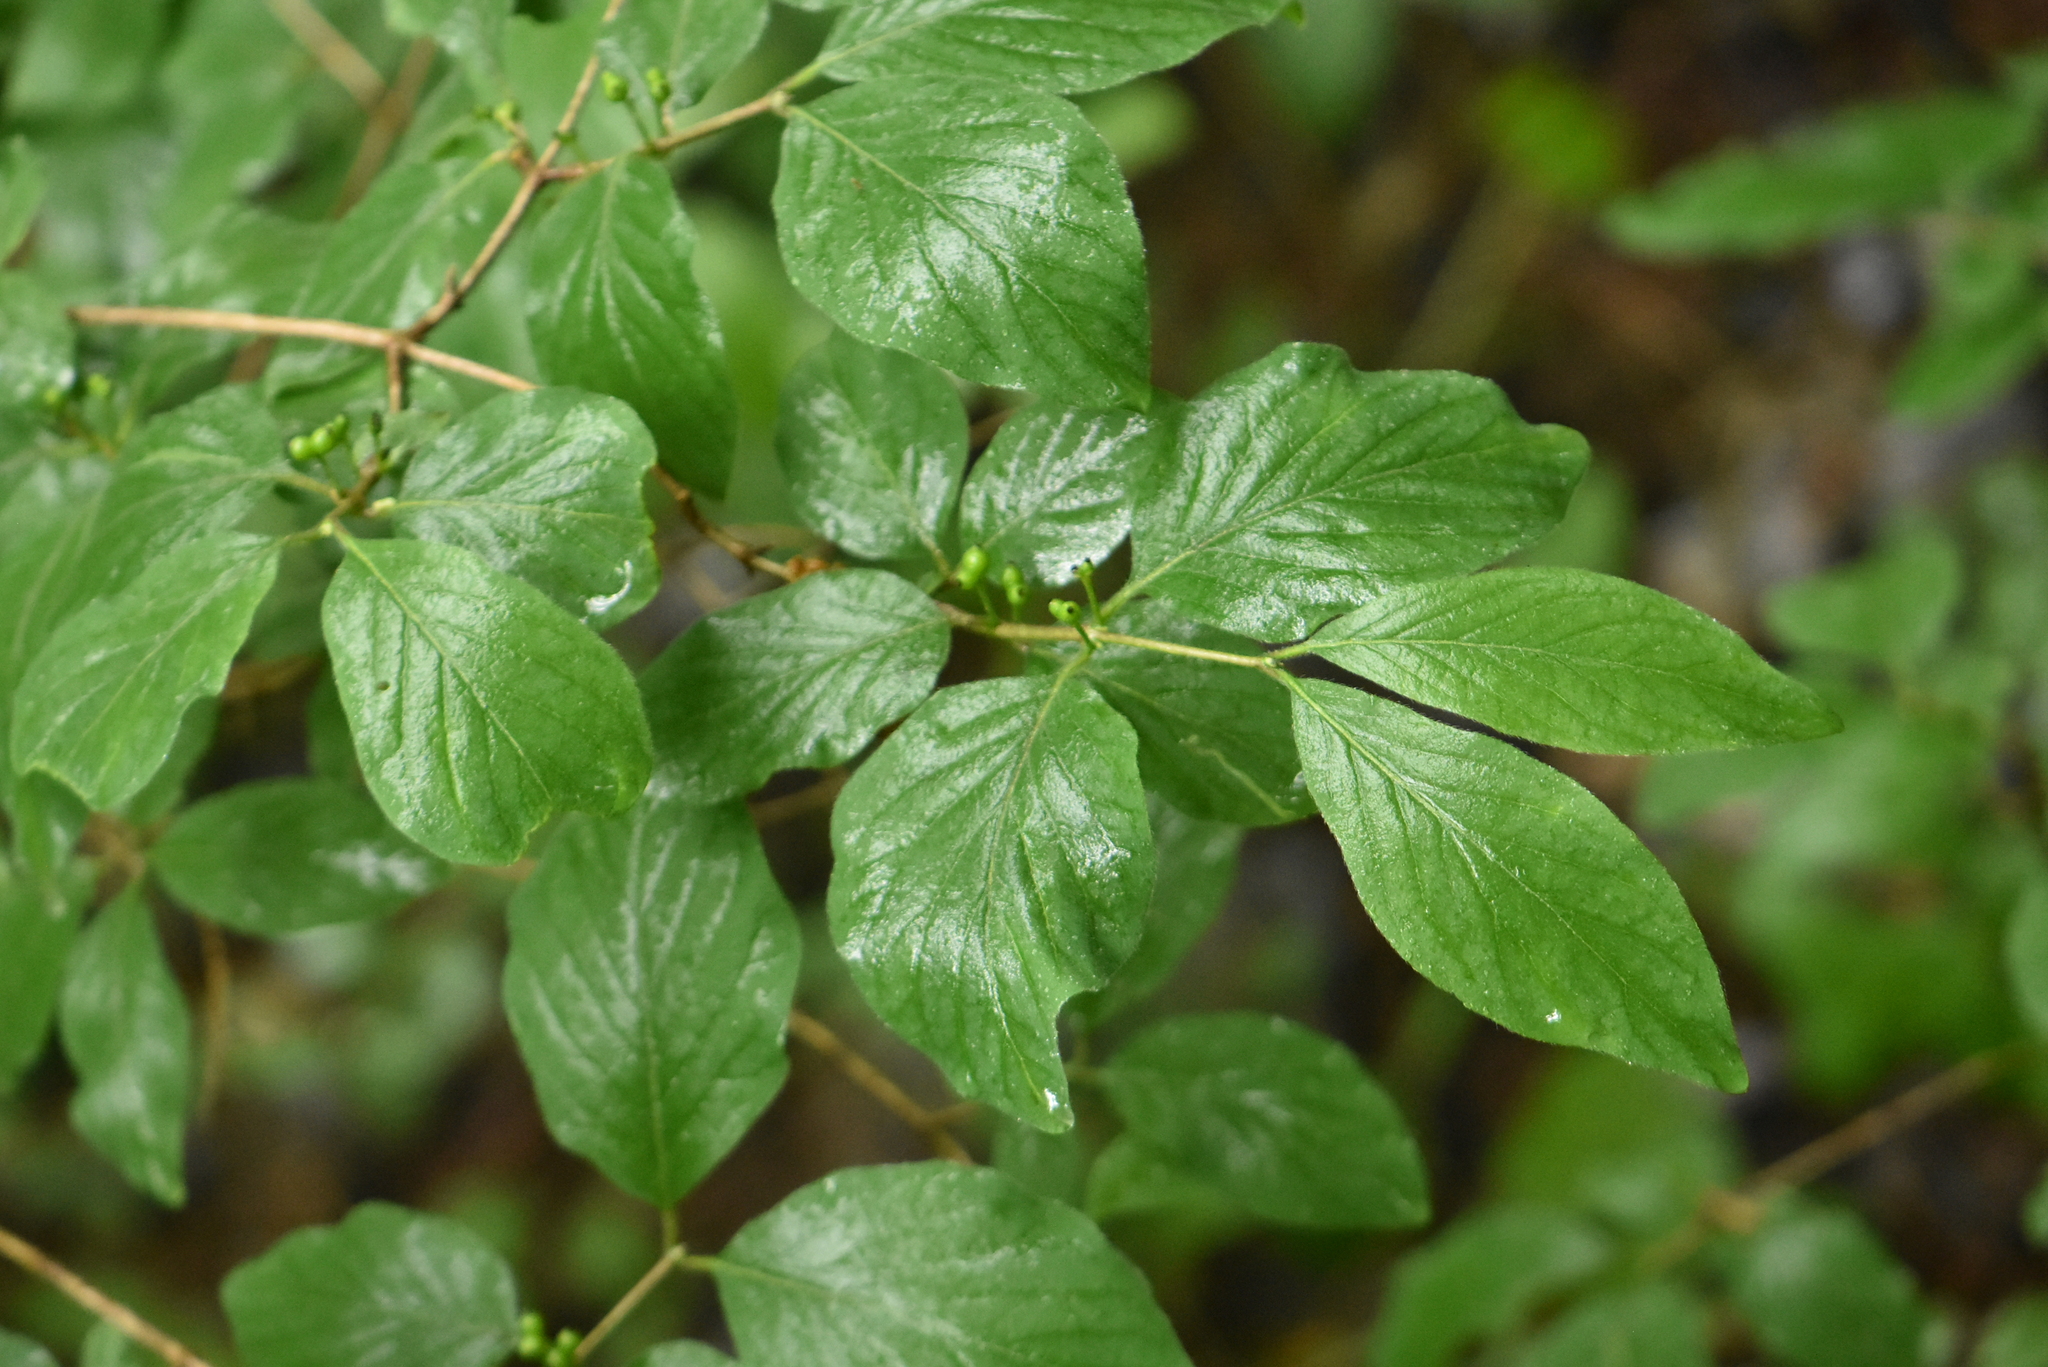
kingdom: Plantae
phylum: Tracheophyta
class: Magnoliopsida
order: Dipsacales
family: Caprifoliaceae
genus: Lonicera
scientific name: Lonicera xylosteum
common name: Fly honeysuckle
